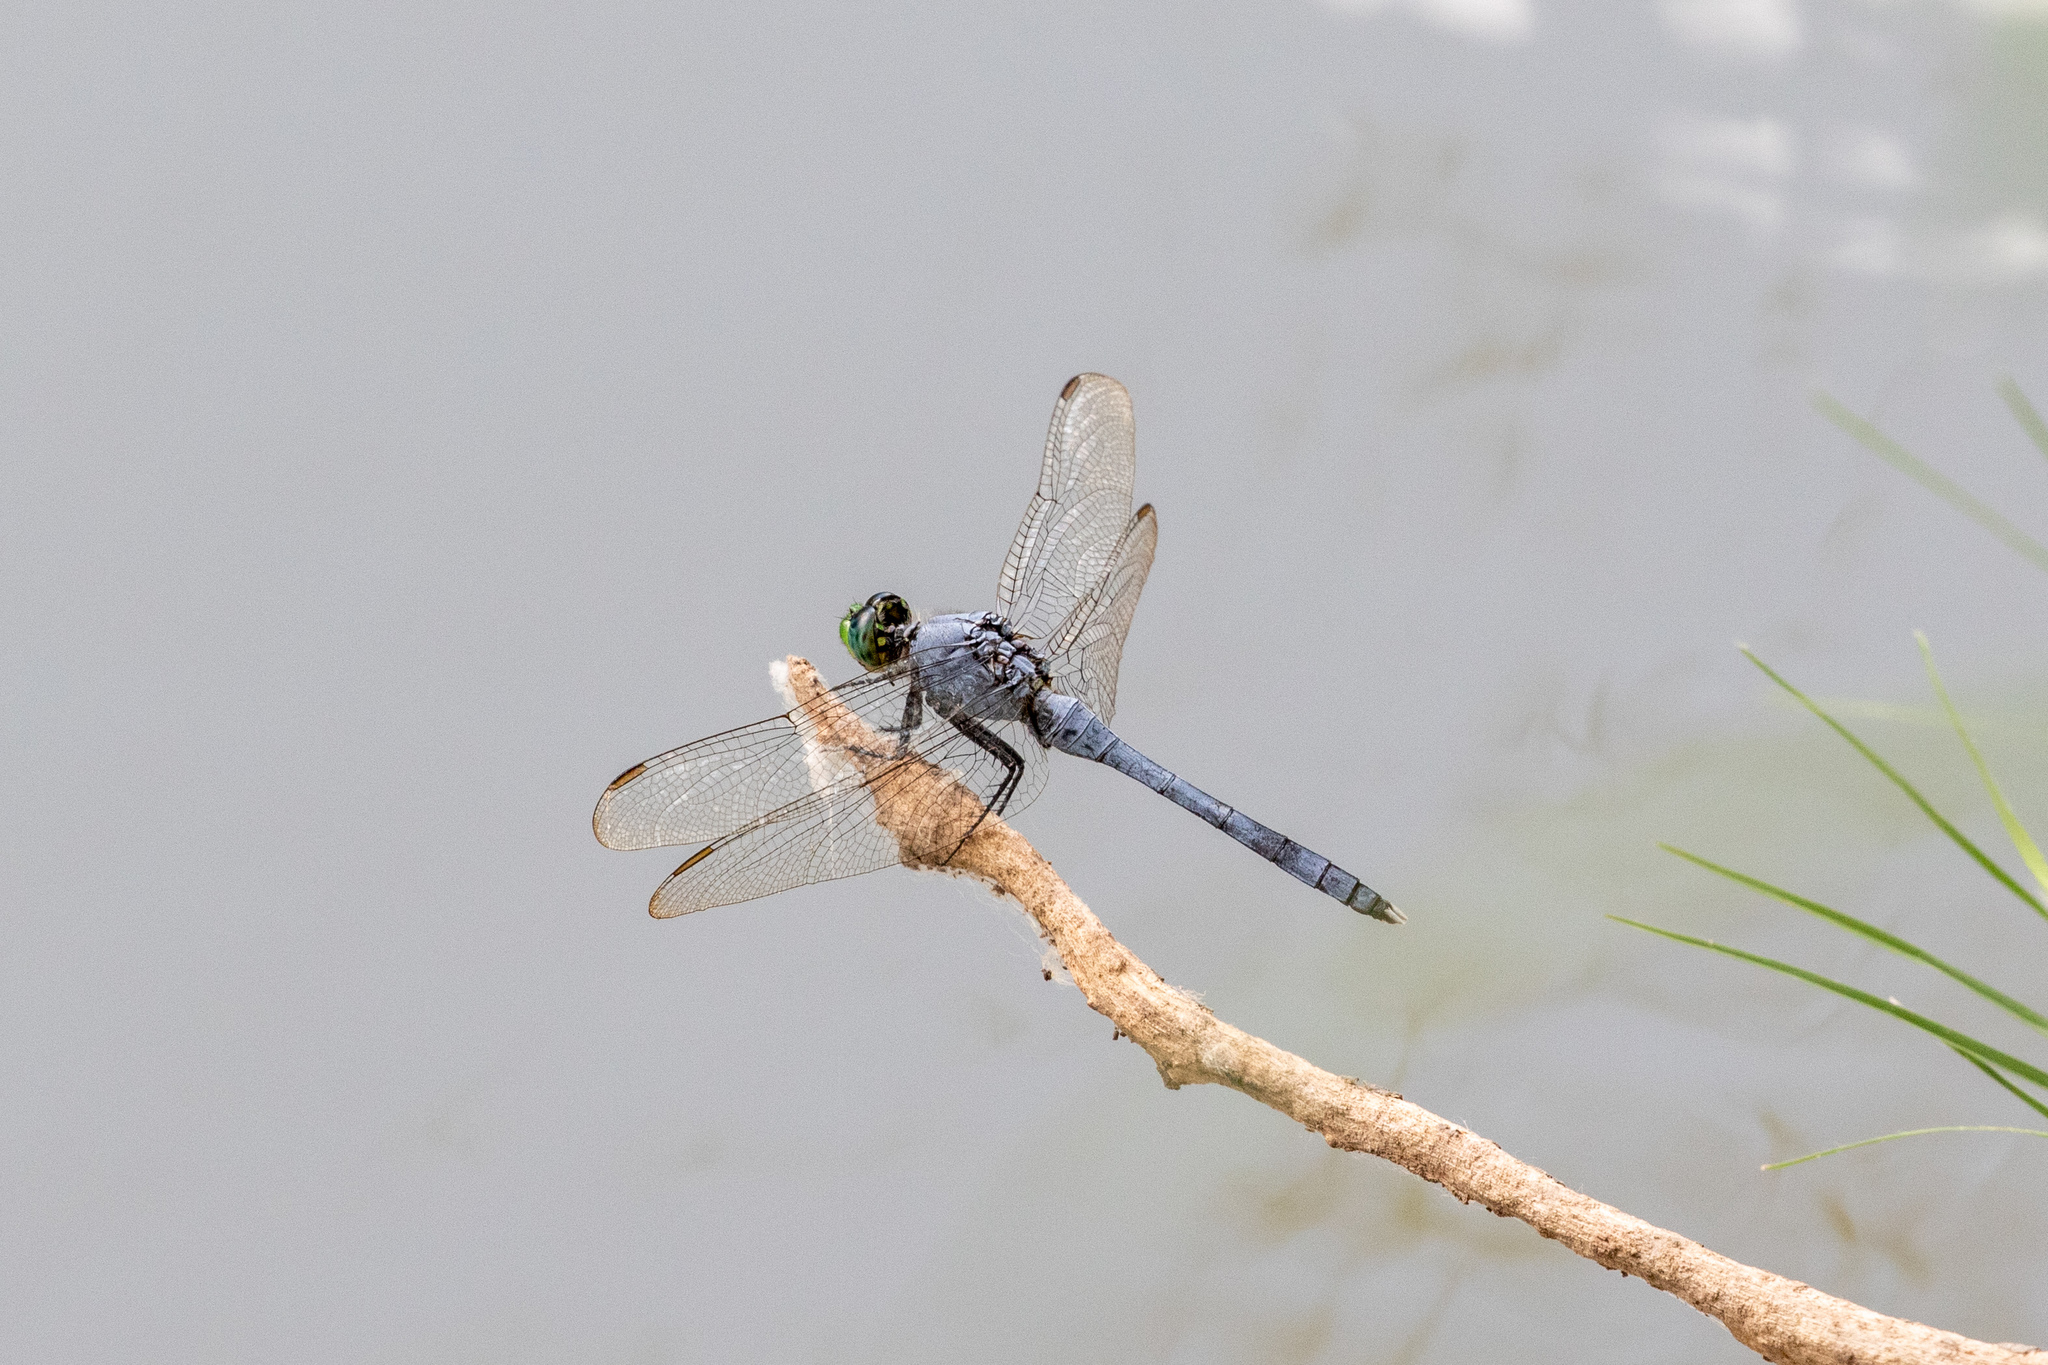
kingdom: Animalia
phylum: Arthropoda
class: Insecta
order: Odonata
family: Libellulidae
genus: Erythemis
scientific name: Erythemis simplicicollis
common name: Eastern pondhawk
